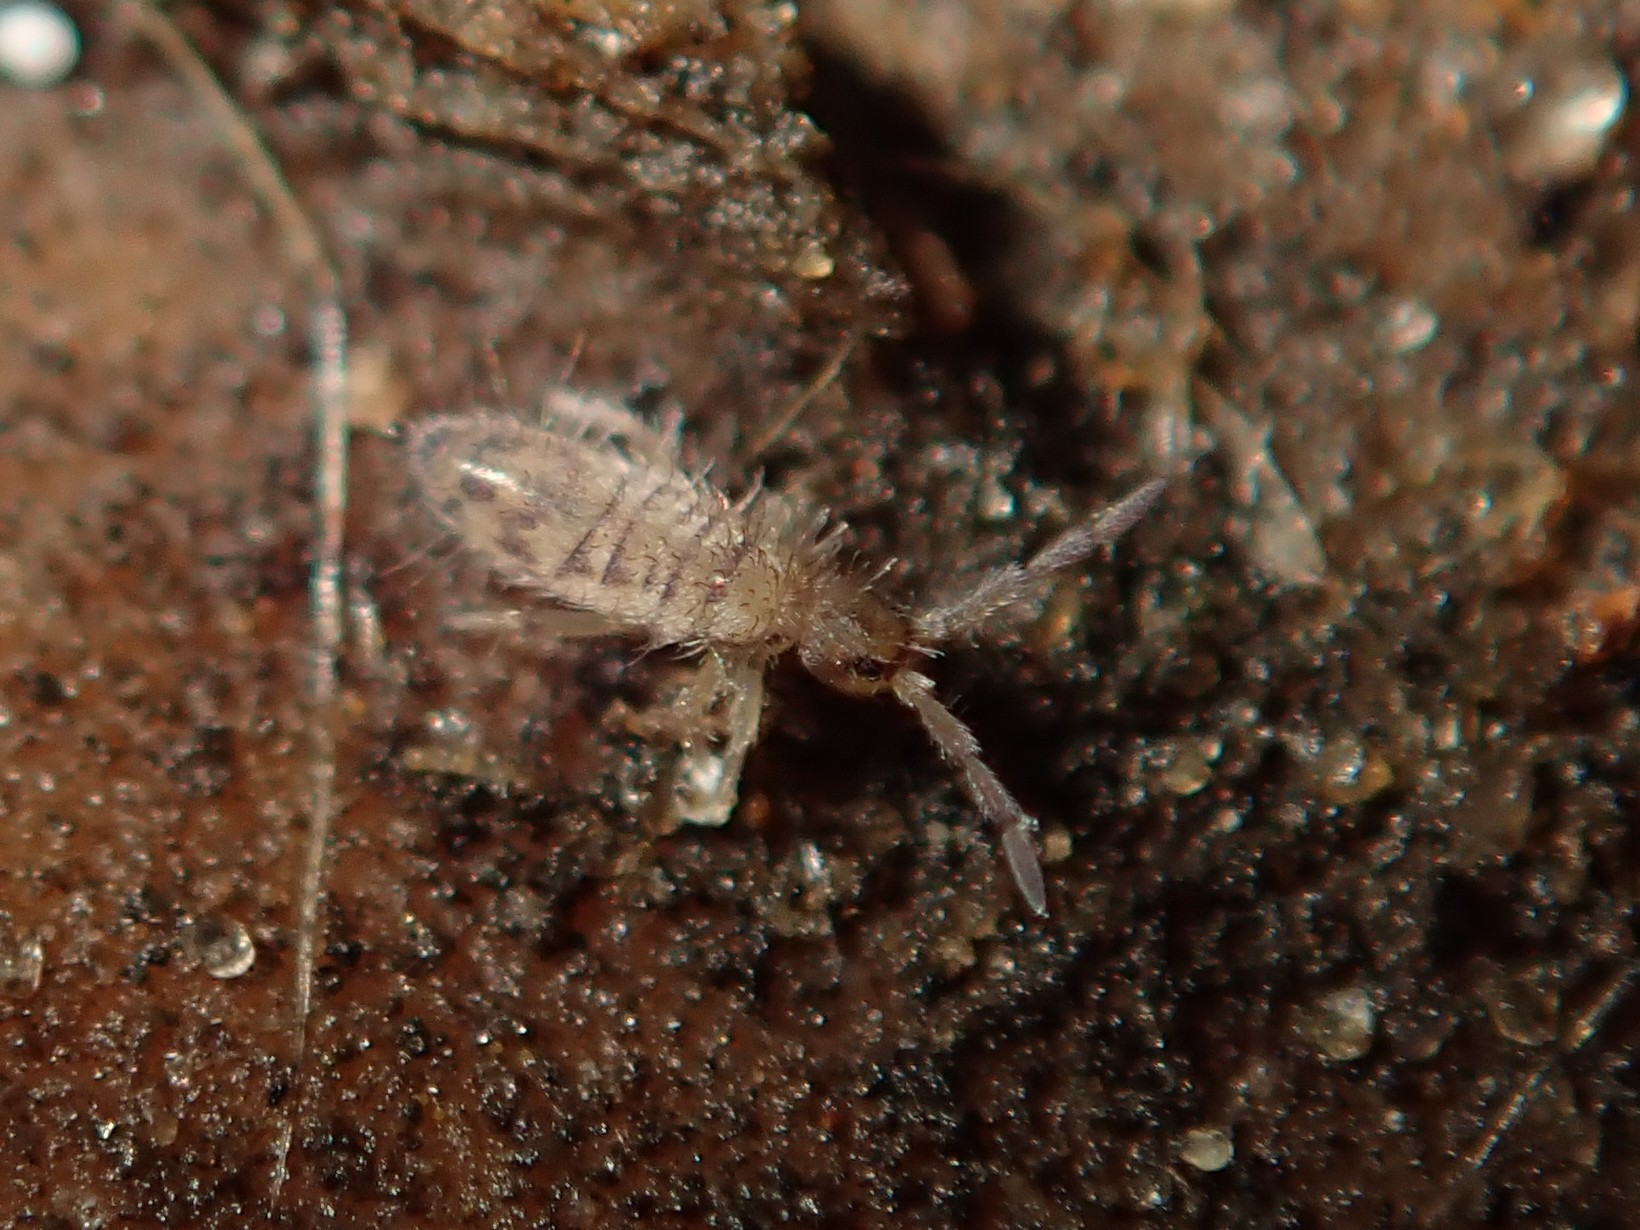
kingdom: Animalia
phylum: Arthropoda
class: Collembola
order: Entomobryomorpha
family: Entomobryidae
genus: Entomobrya
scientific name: Entomobrya multifasciata
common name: Springtail
